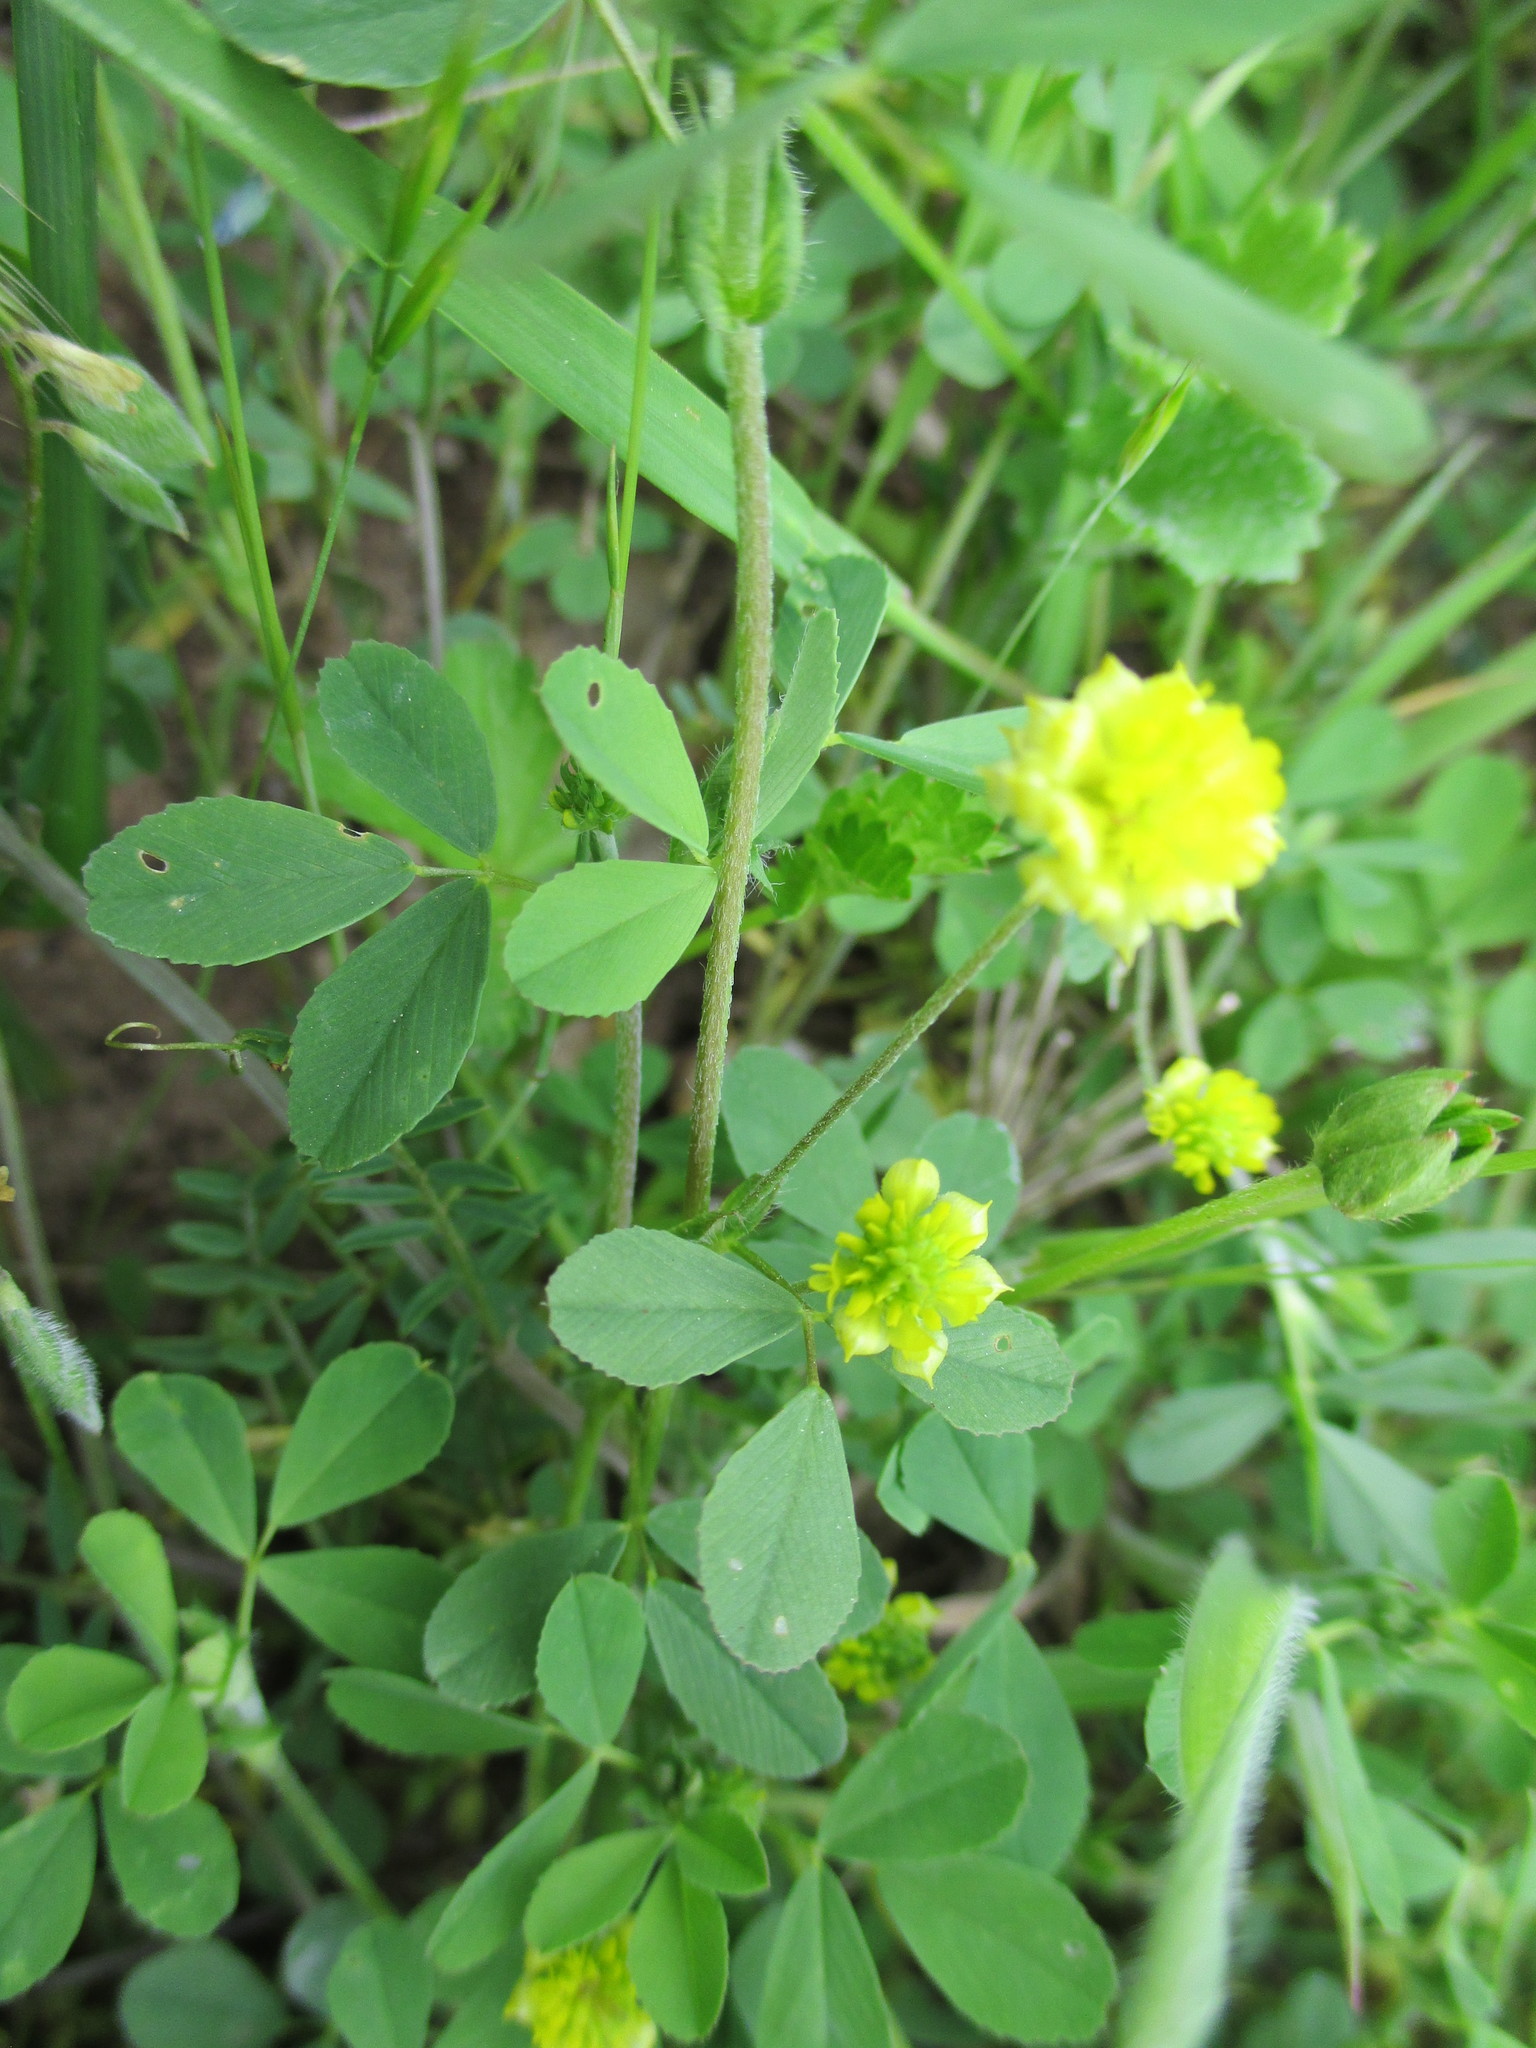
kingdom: Plantae
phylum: Tracheophyta
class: Magnoliopsida
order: Fabales
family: Fabaceae
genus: Trifolium
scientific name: Trifolium campestre
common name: Field clover
